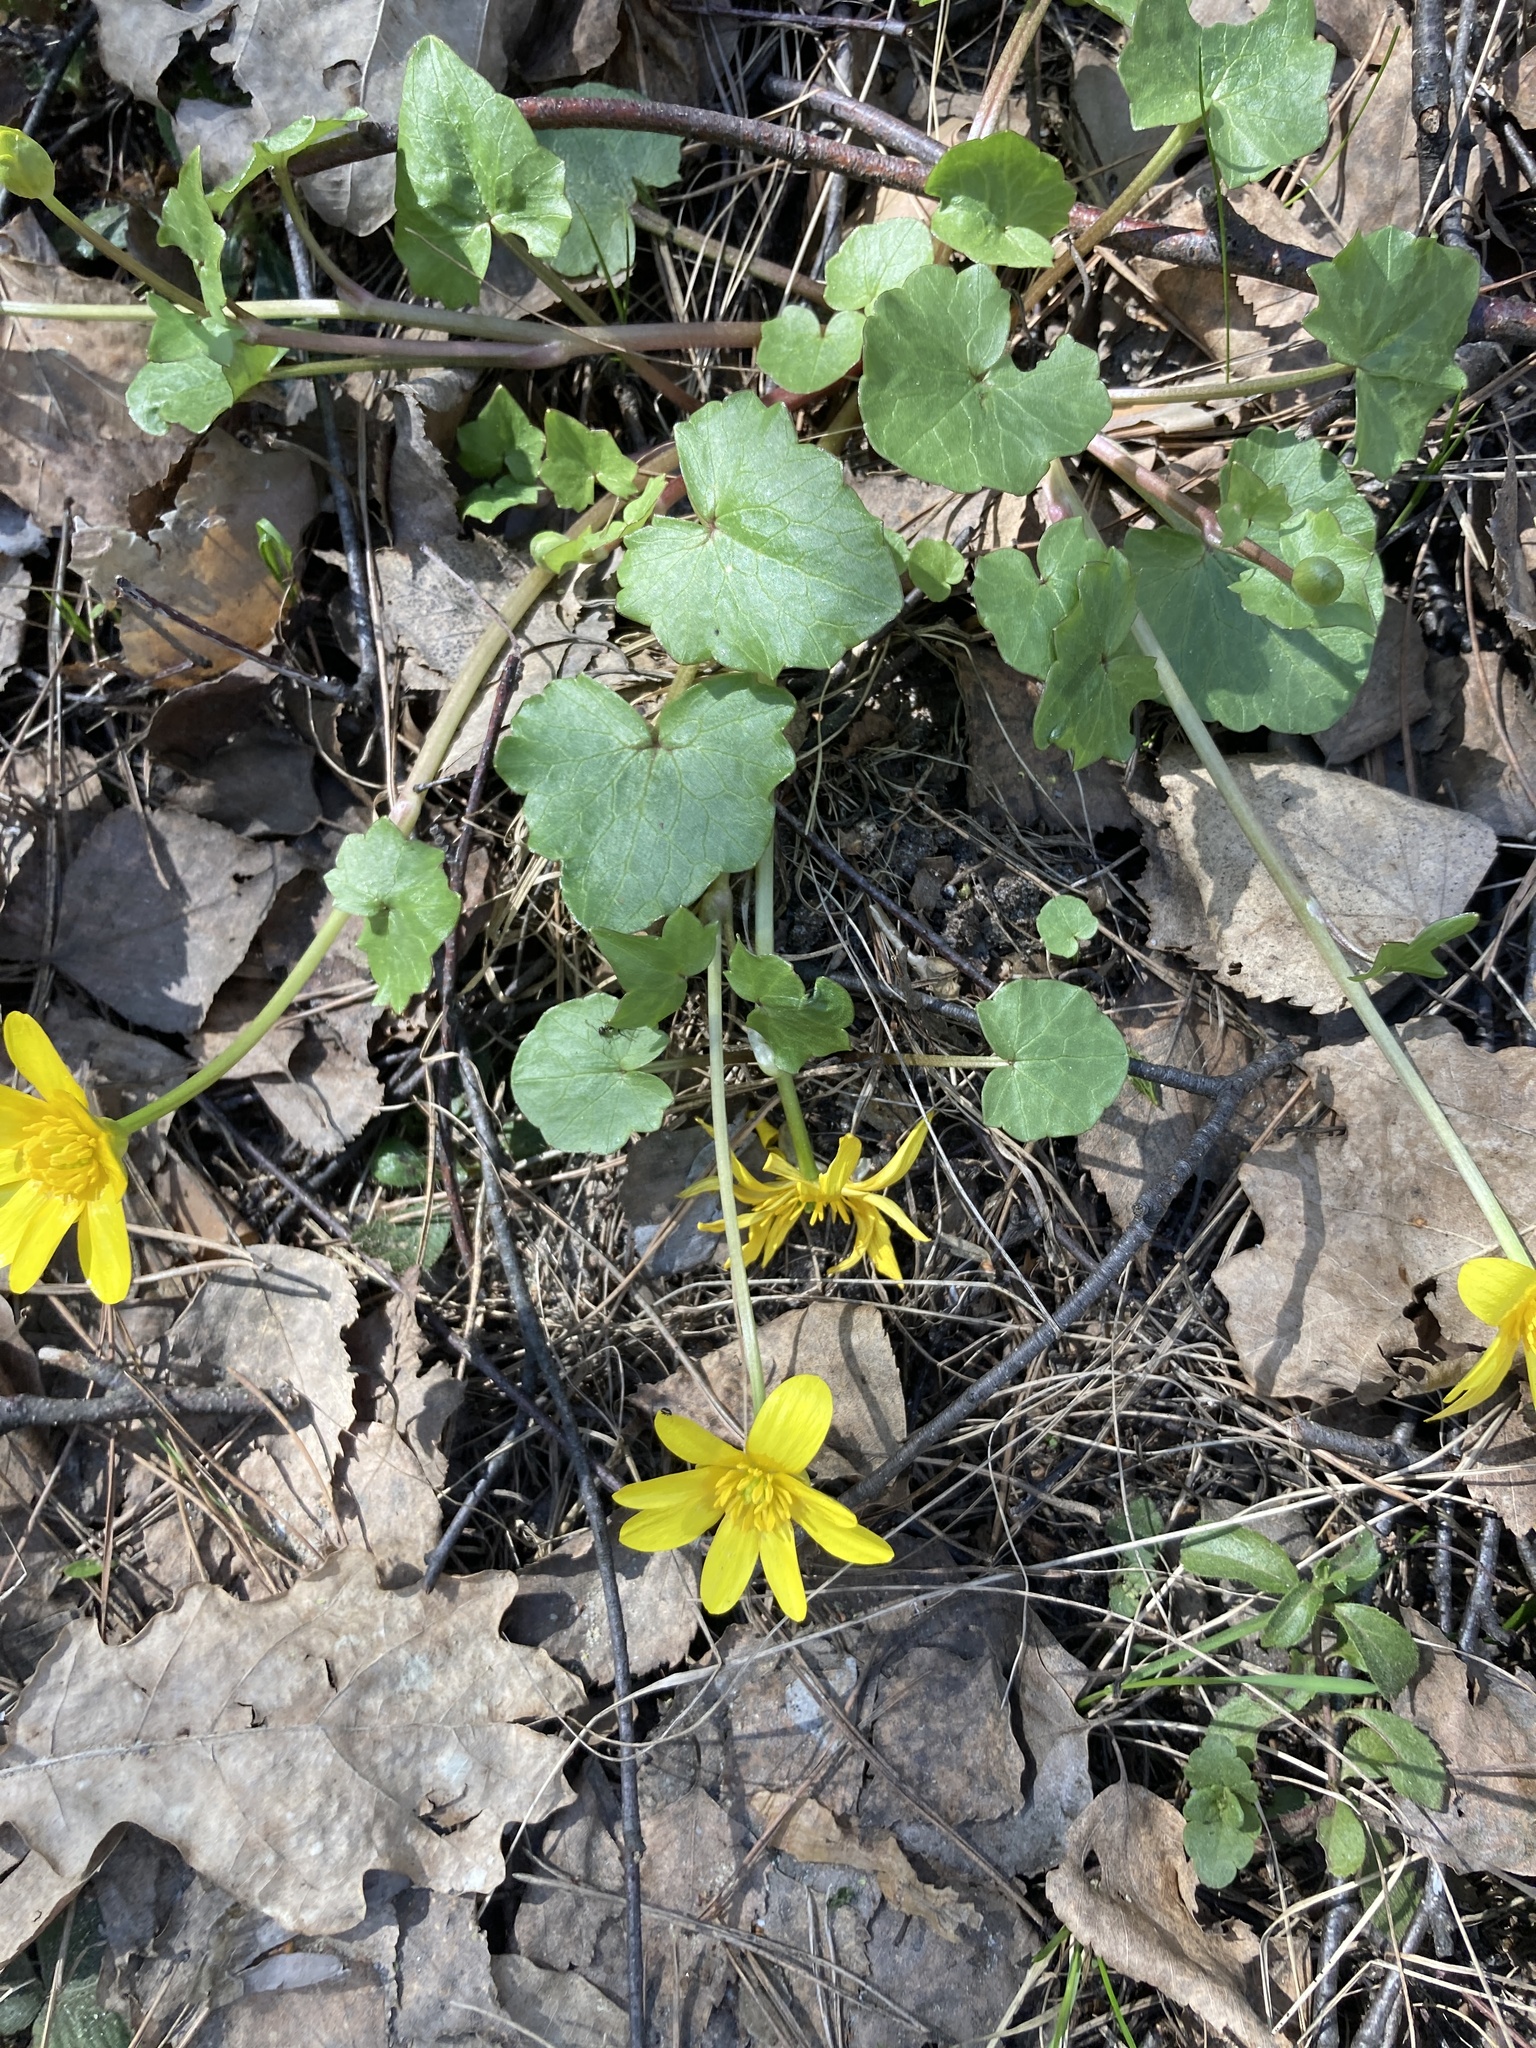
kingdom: Plantae
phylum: Tracheophyta
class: Magnoliopsida
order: Ranunculales
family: Ranunculaceae
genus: Ficaria
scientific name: Ficaria verna
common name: Lesser celandine
